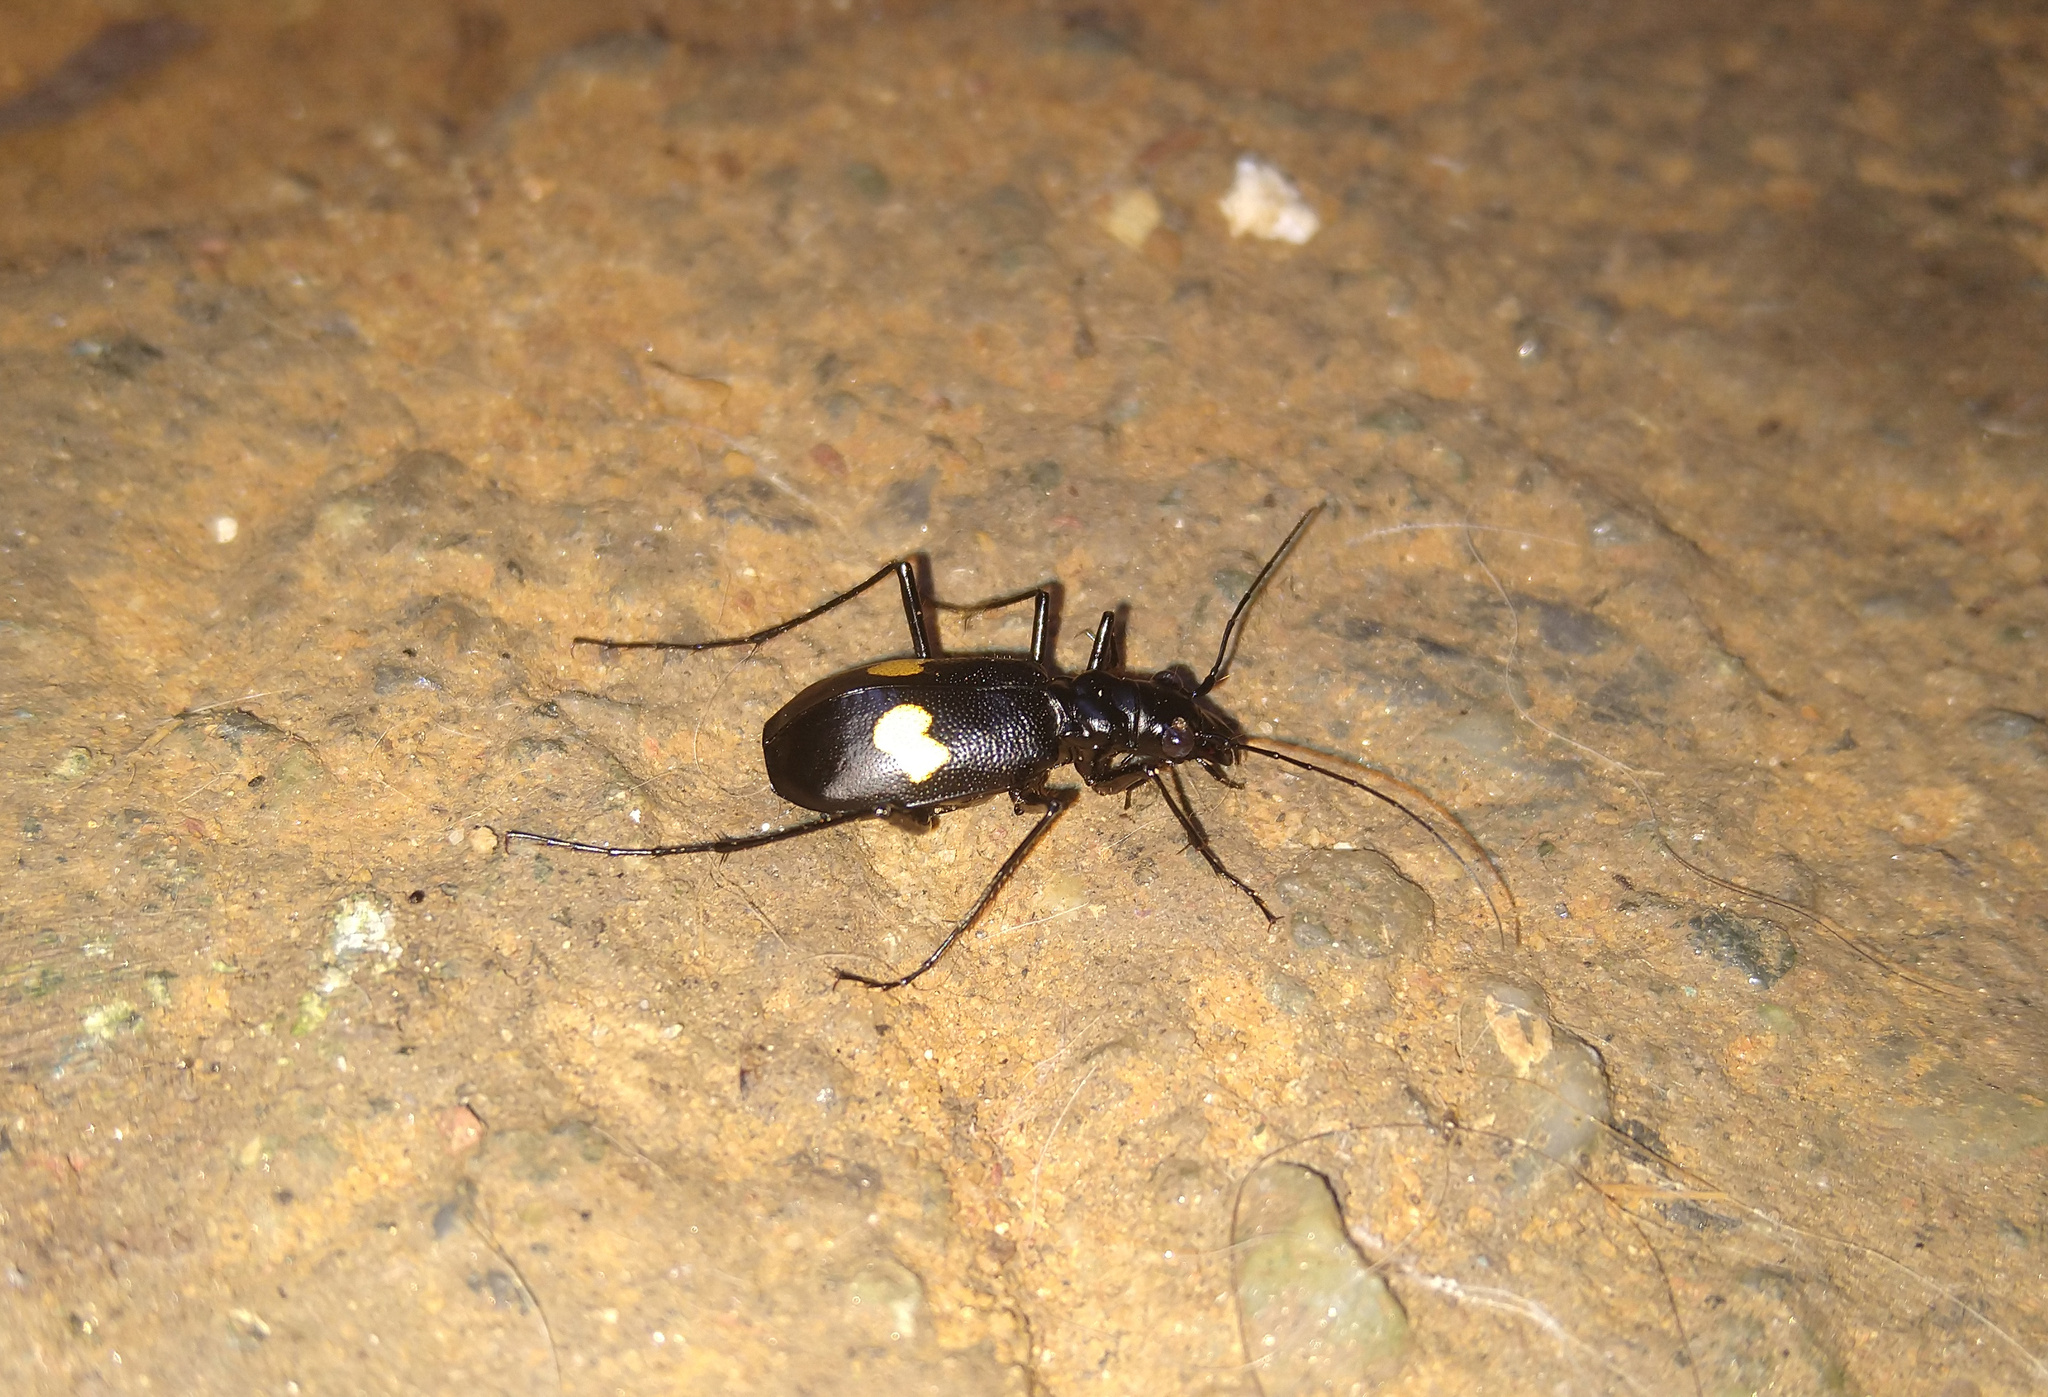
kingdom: Animalia
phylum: Arthropoda
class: Insecta
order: Coleoptera
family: Carabidae
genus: Oxycheila
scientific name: Oxycheila tristis
